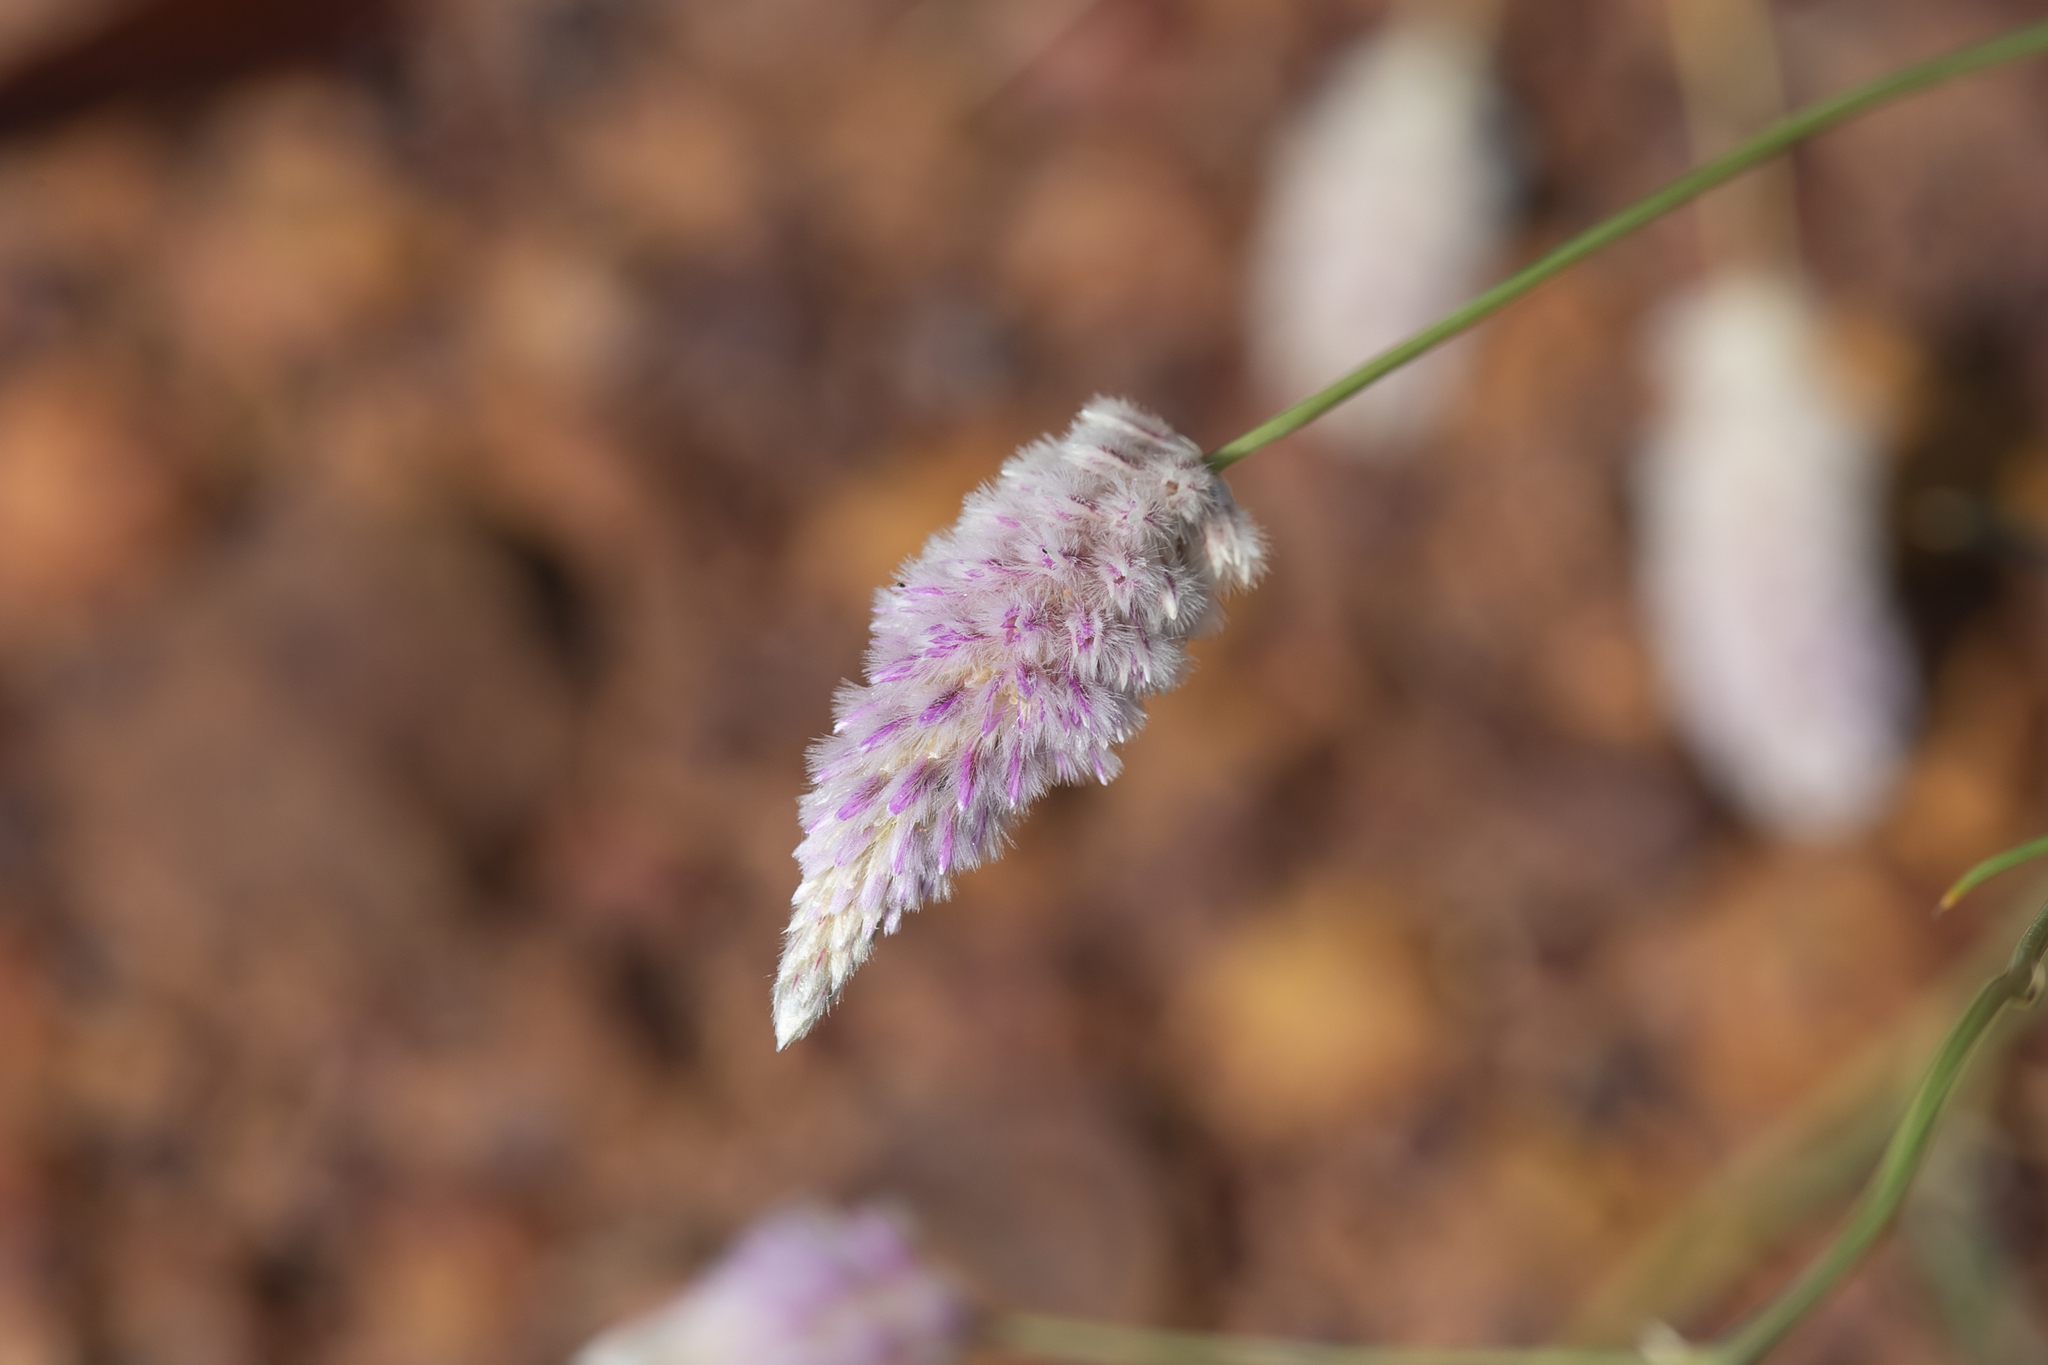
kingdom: Plantae
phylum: Tracheophyta
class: Magnoliopsida
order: Caryophyllales
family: Amaranthaceae
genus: Ptilotus
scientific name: Ptilotus calostachyus
